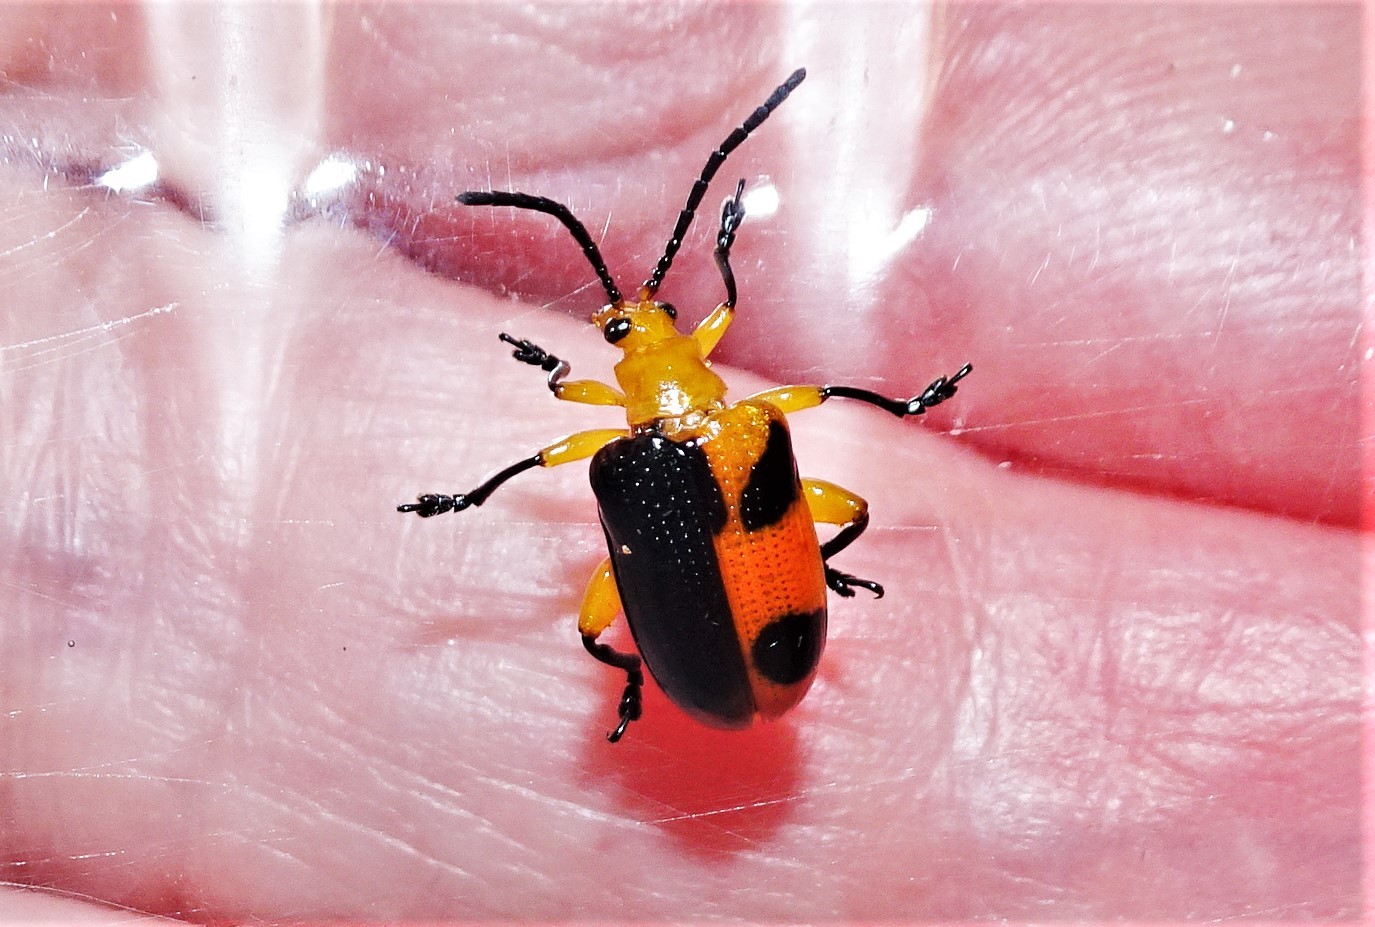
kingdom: Animalia
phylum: Arthropoda
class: Insecta
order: Coleoptera
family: Chrysomelidae
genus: Stethopachys
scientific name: Stethopachys formosa
